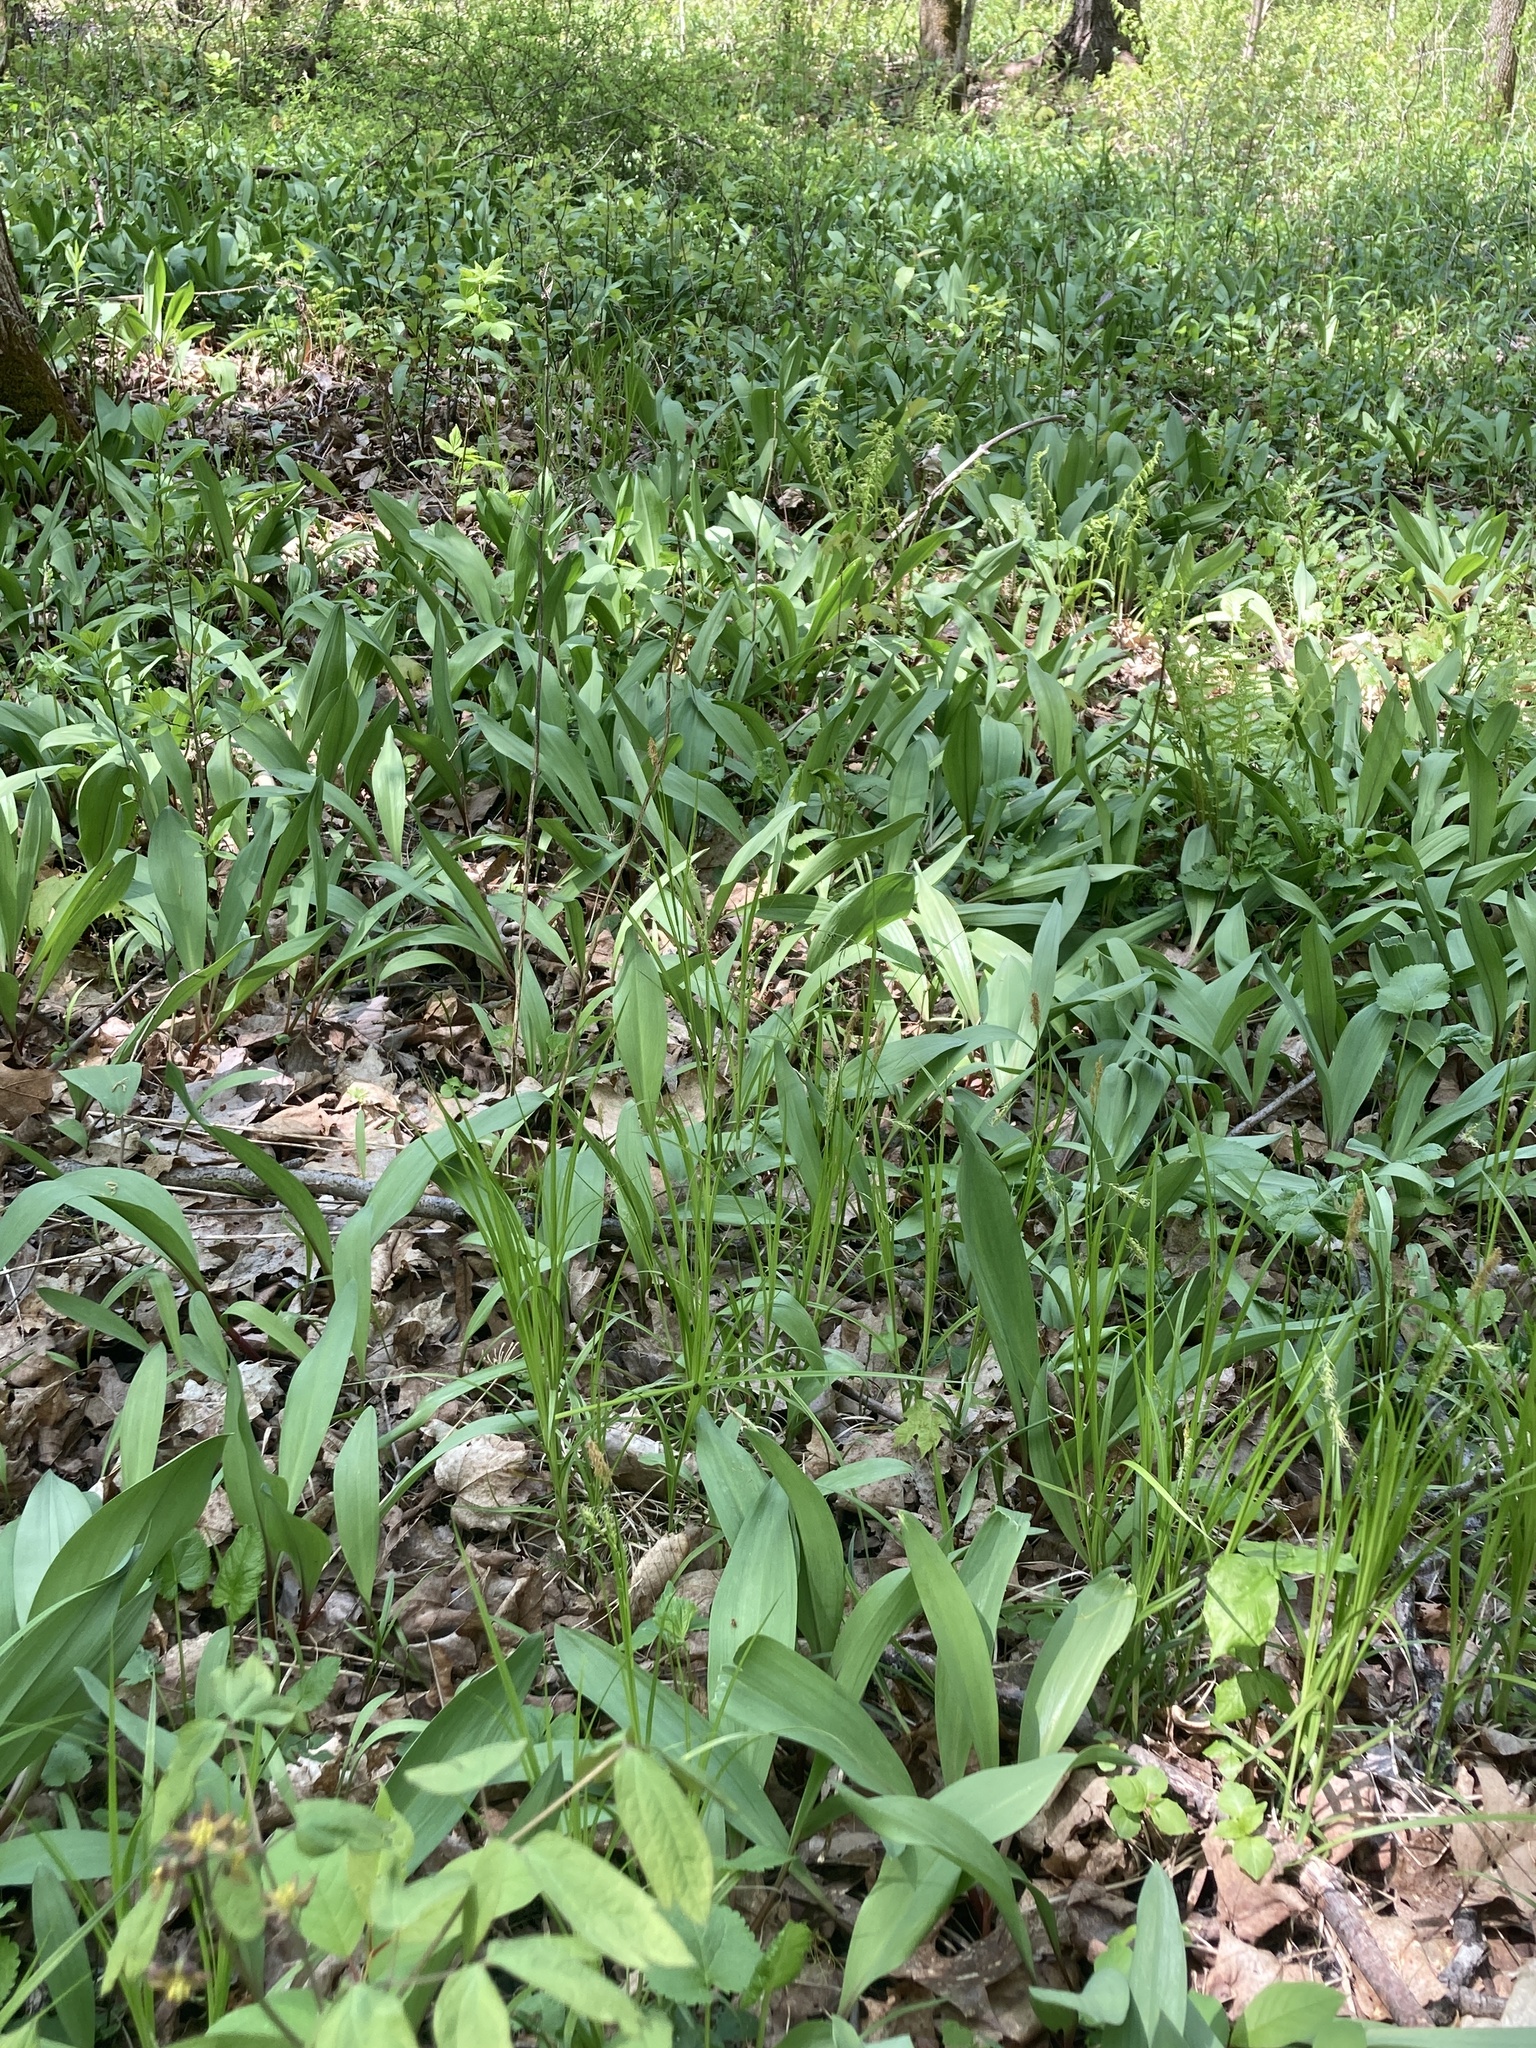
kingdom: Plantae
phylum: Tracheophyta
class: Liliopsida
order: Asparagales
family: Amaryllidaceae
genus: Allium
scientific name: Allium tricoccum
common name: Ramp
